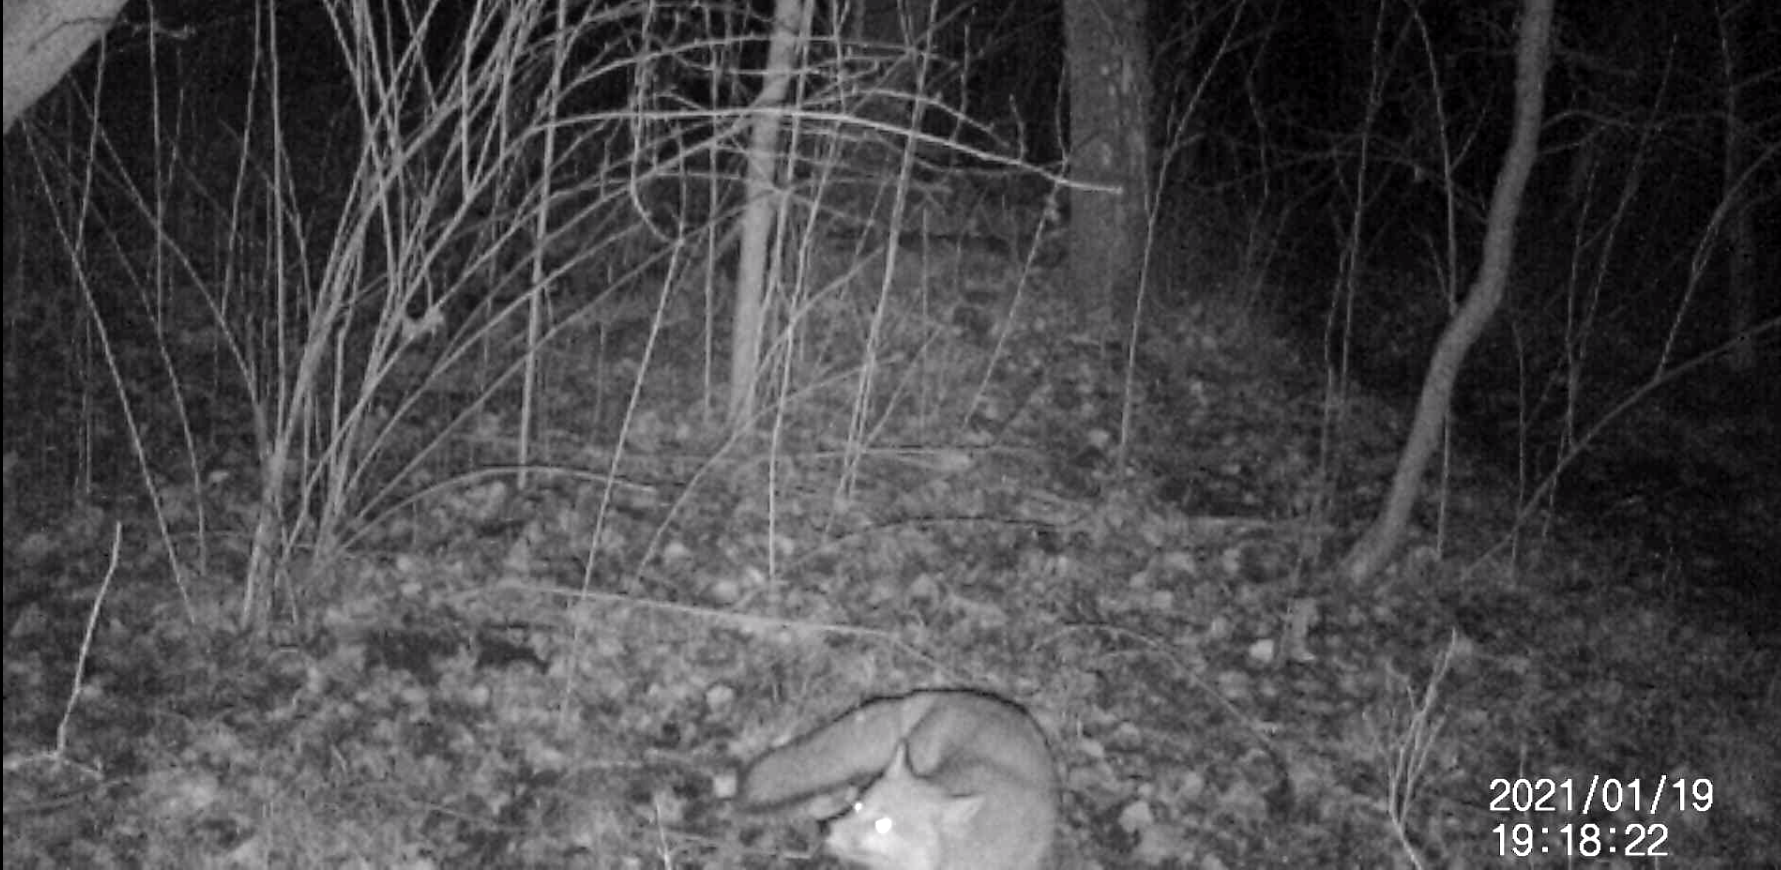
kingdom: Animalia
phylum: Chordata
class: Mammalia
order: Carnivora
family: Canidae
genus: Vulpes
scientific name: Vulpes vulpes
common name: Red fox
